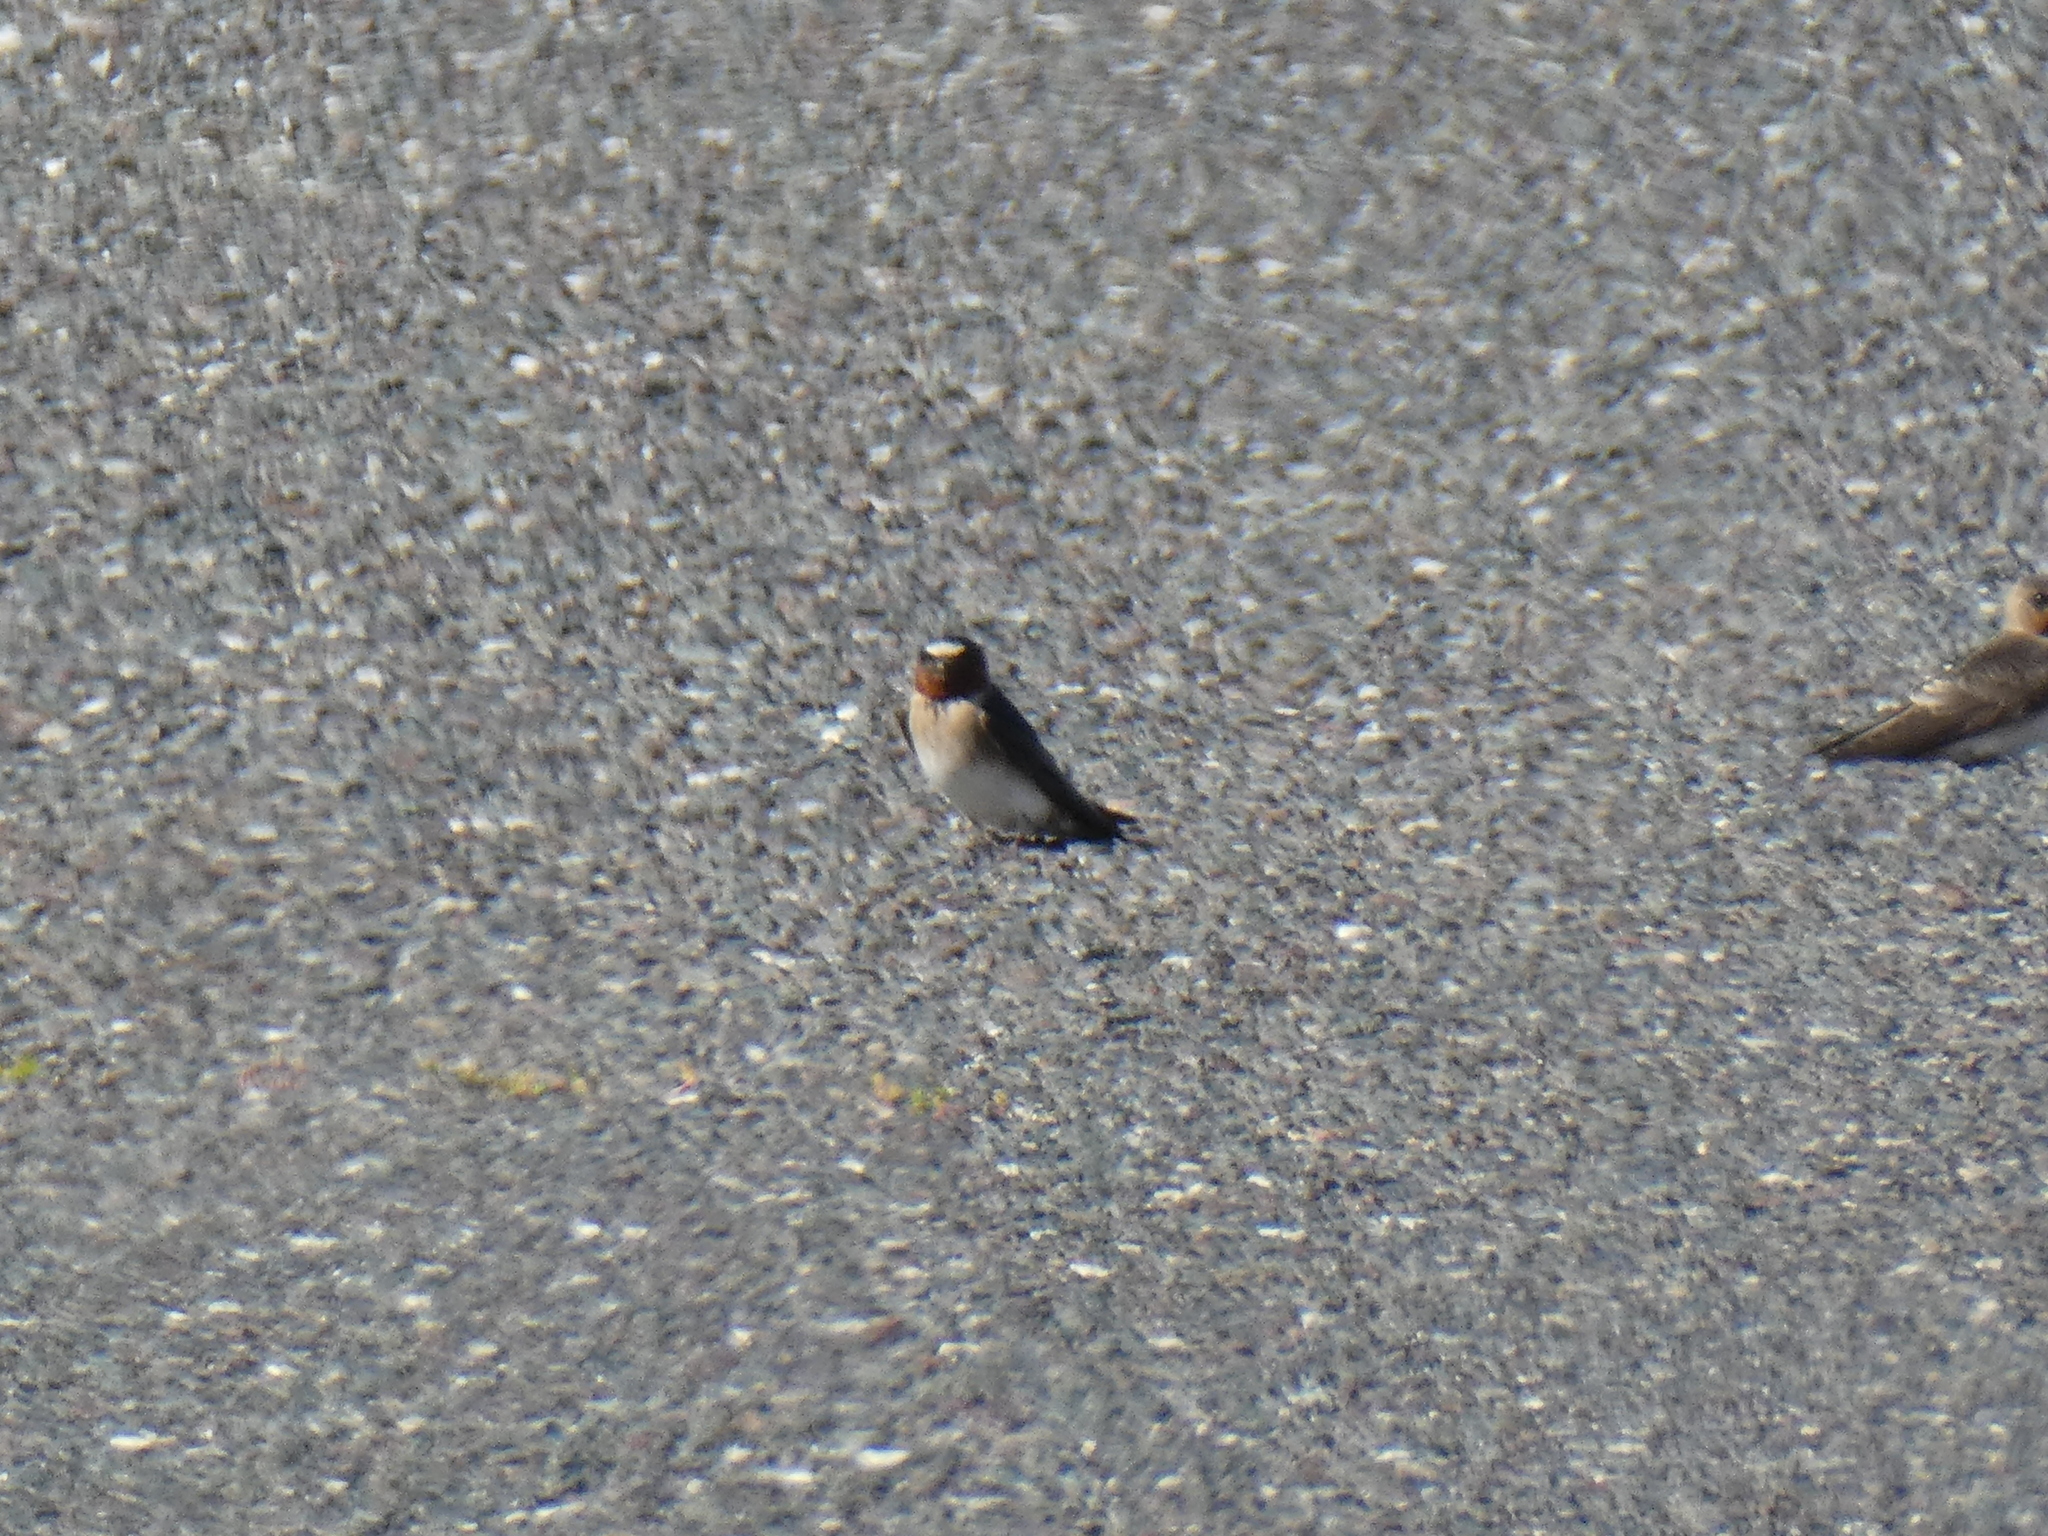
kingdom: Animalia
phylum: Chordata
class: Aves
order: Passeriformes
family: Hirundinidae
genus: Petrochelidon
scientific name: Petrochelidon pyrrhonota
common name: American cliff swallow
